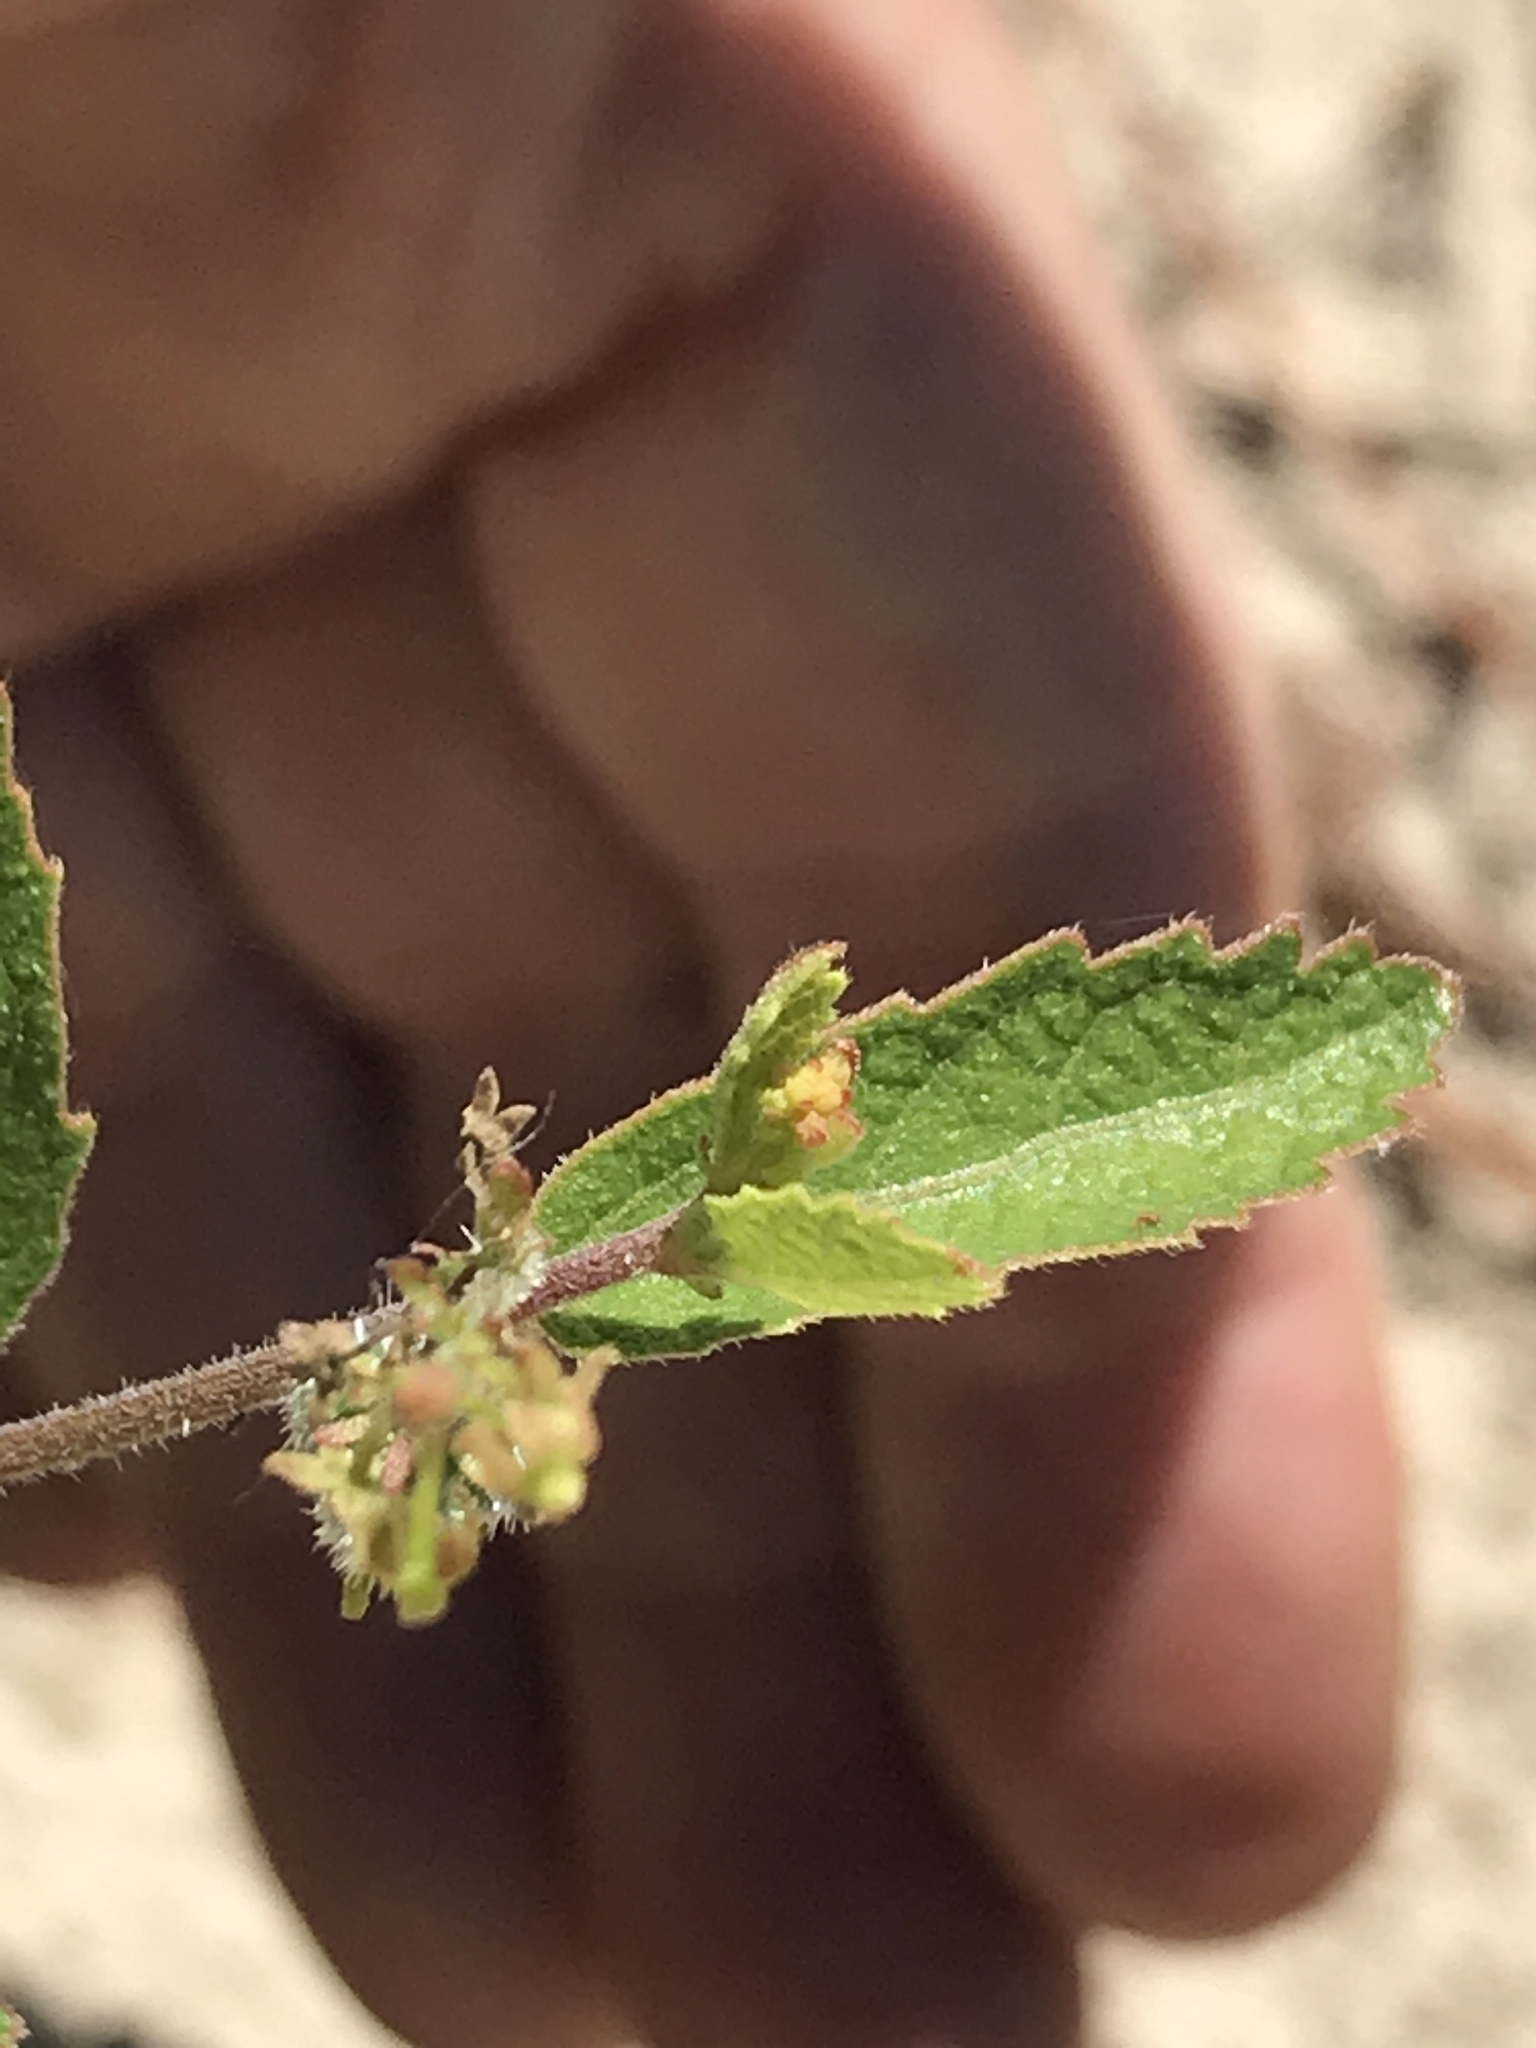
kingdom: Plantae
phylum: Tracheophyta
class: Magnoliopsida
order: Malpighiales
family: Euphorbiaceae
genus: Tragia
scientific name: Tragia smallii
